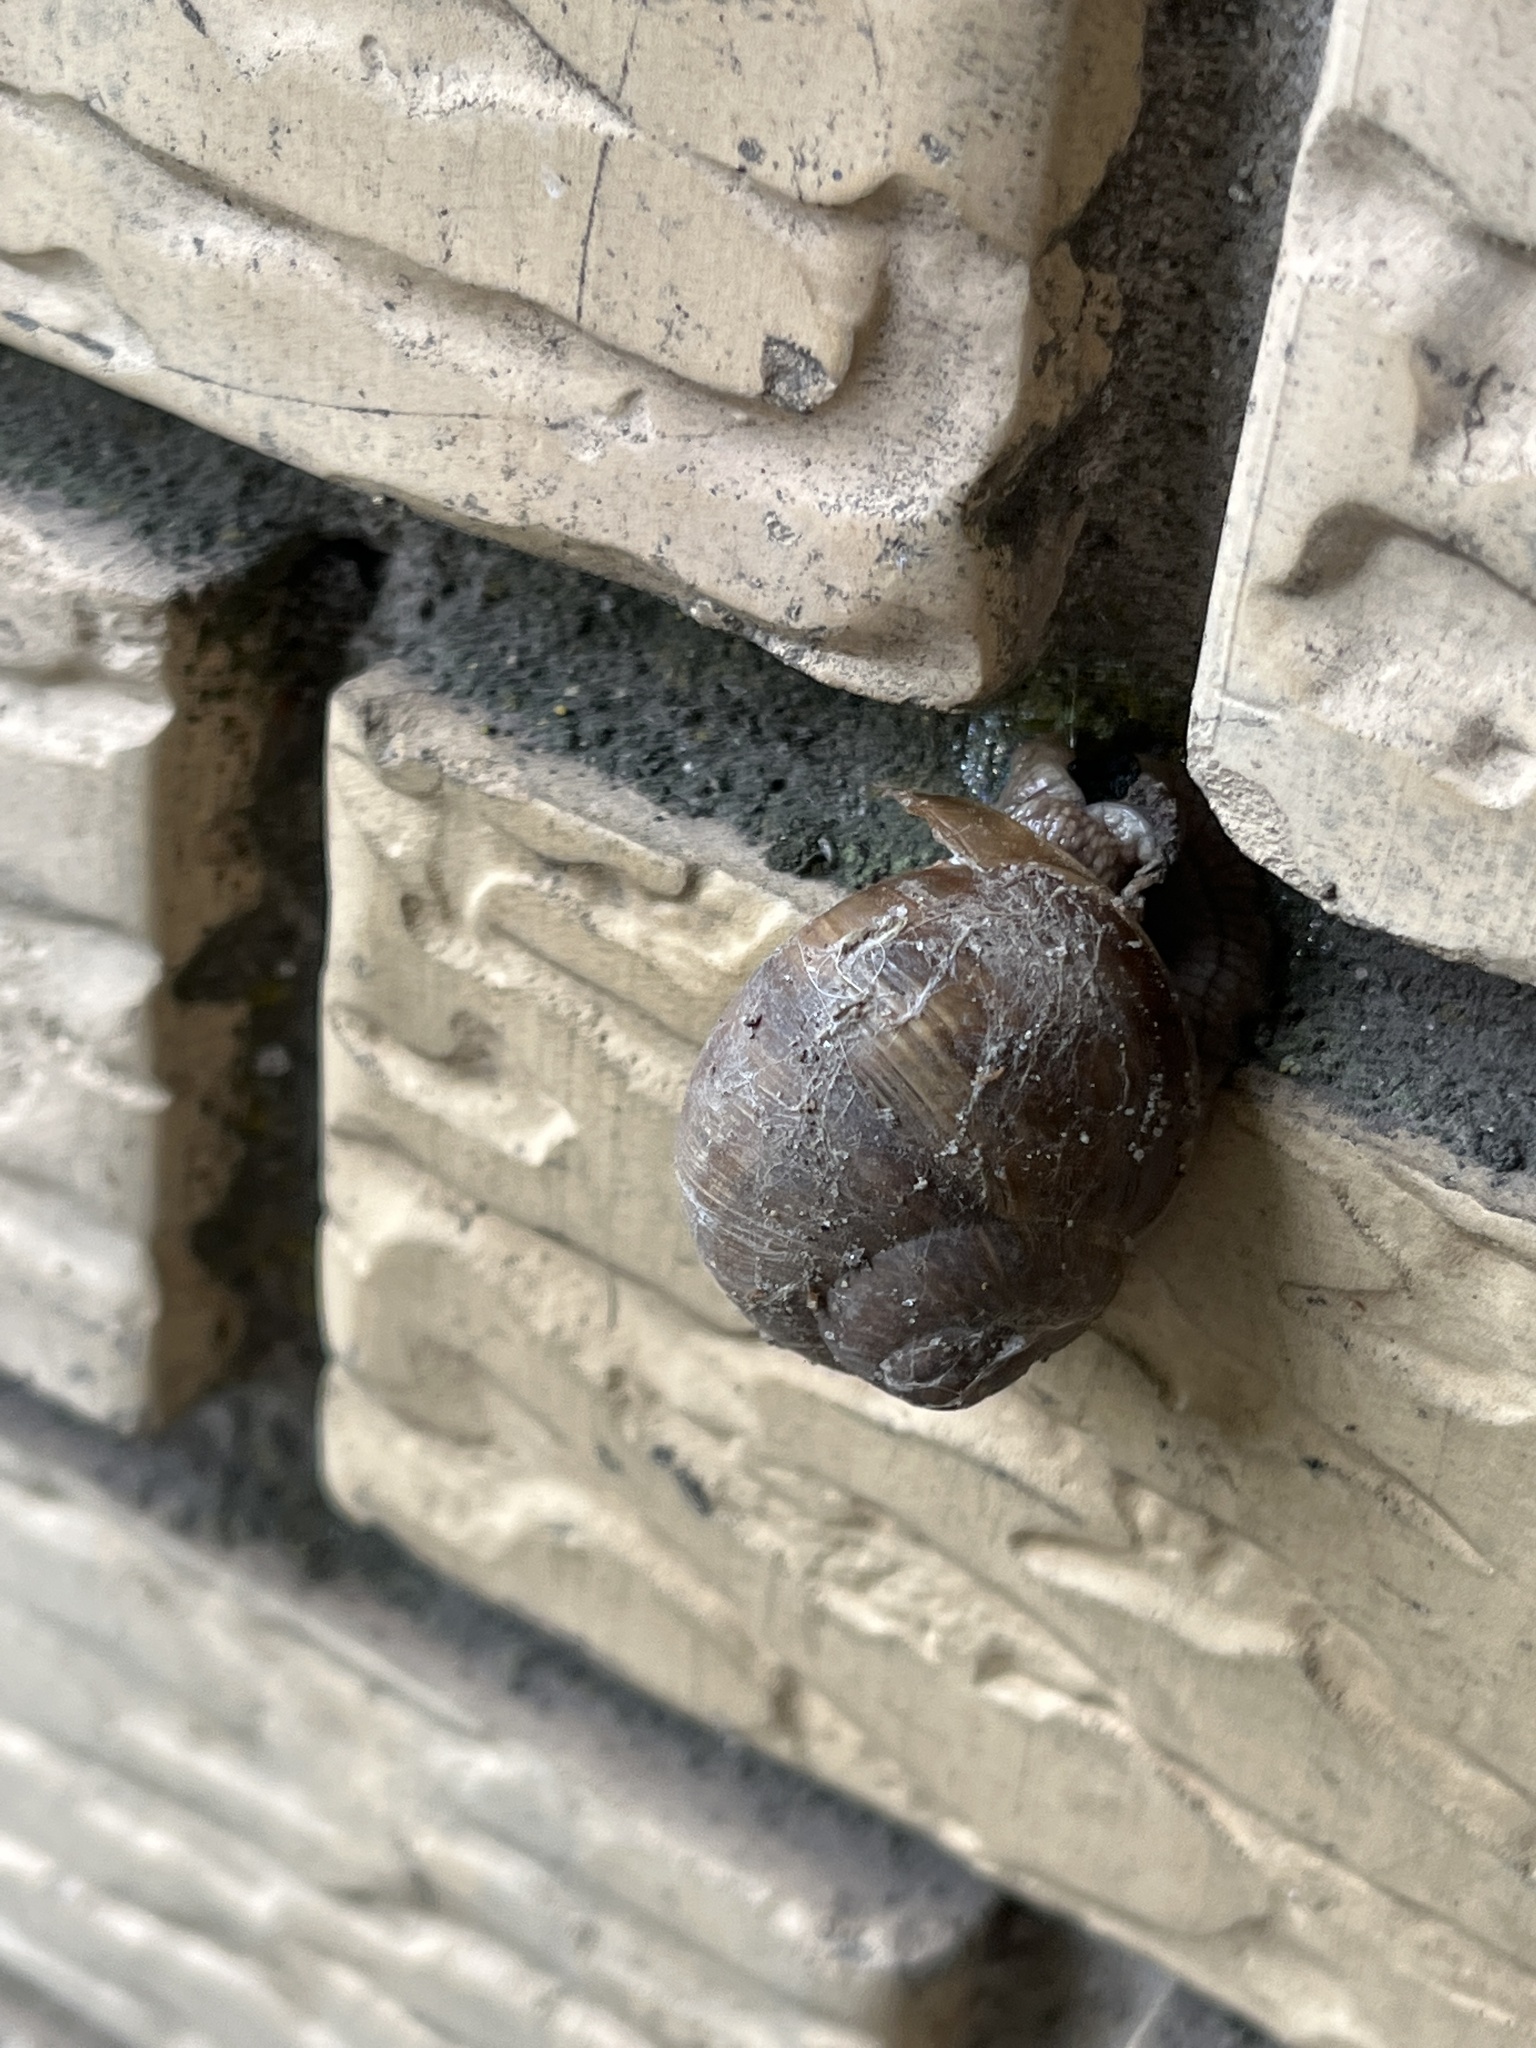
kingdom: Animalia
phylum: Mollusca
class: Gastropoda
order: Stylommatophora
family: Helicidae
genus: Helix
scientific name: Helix pomatia
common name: Roman snail
